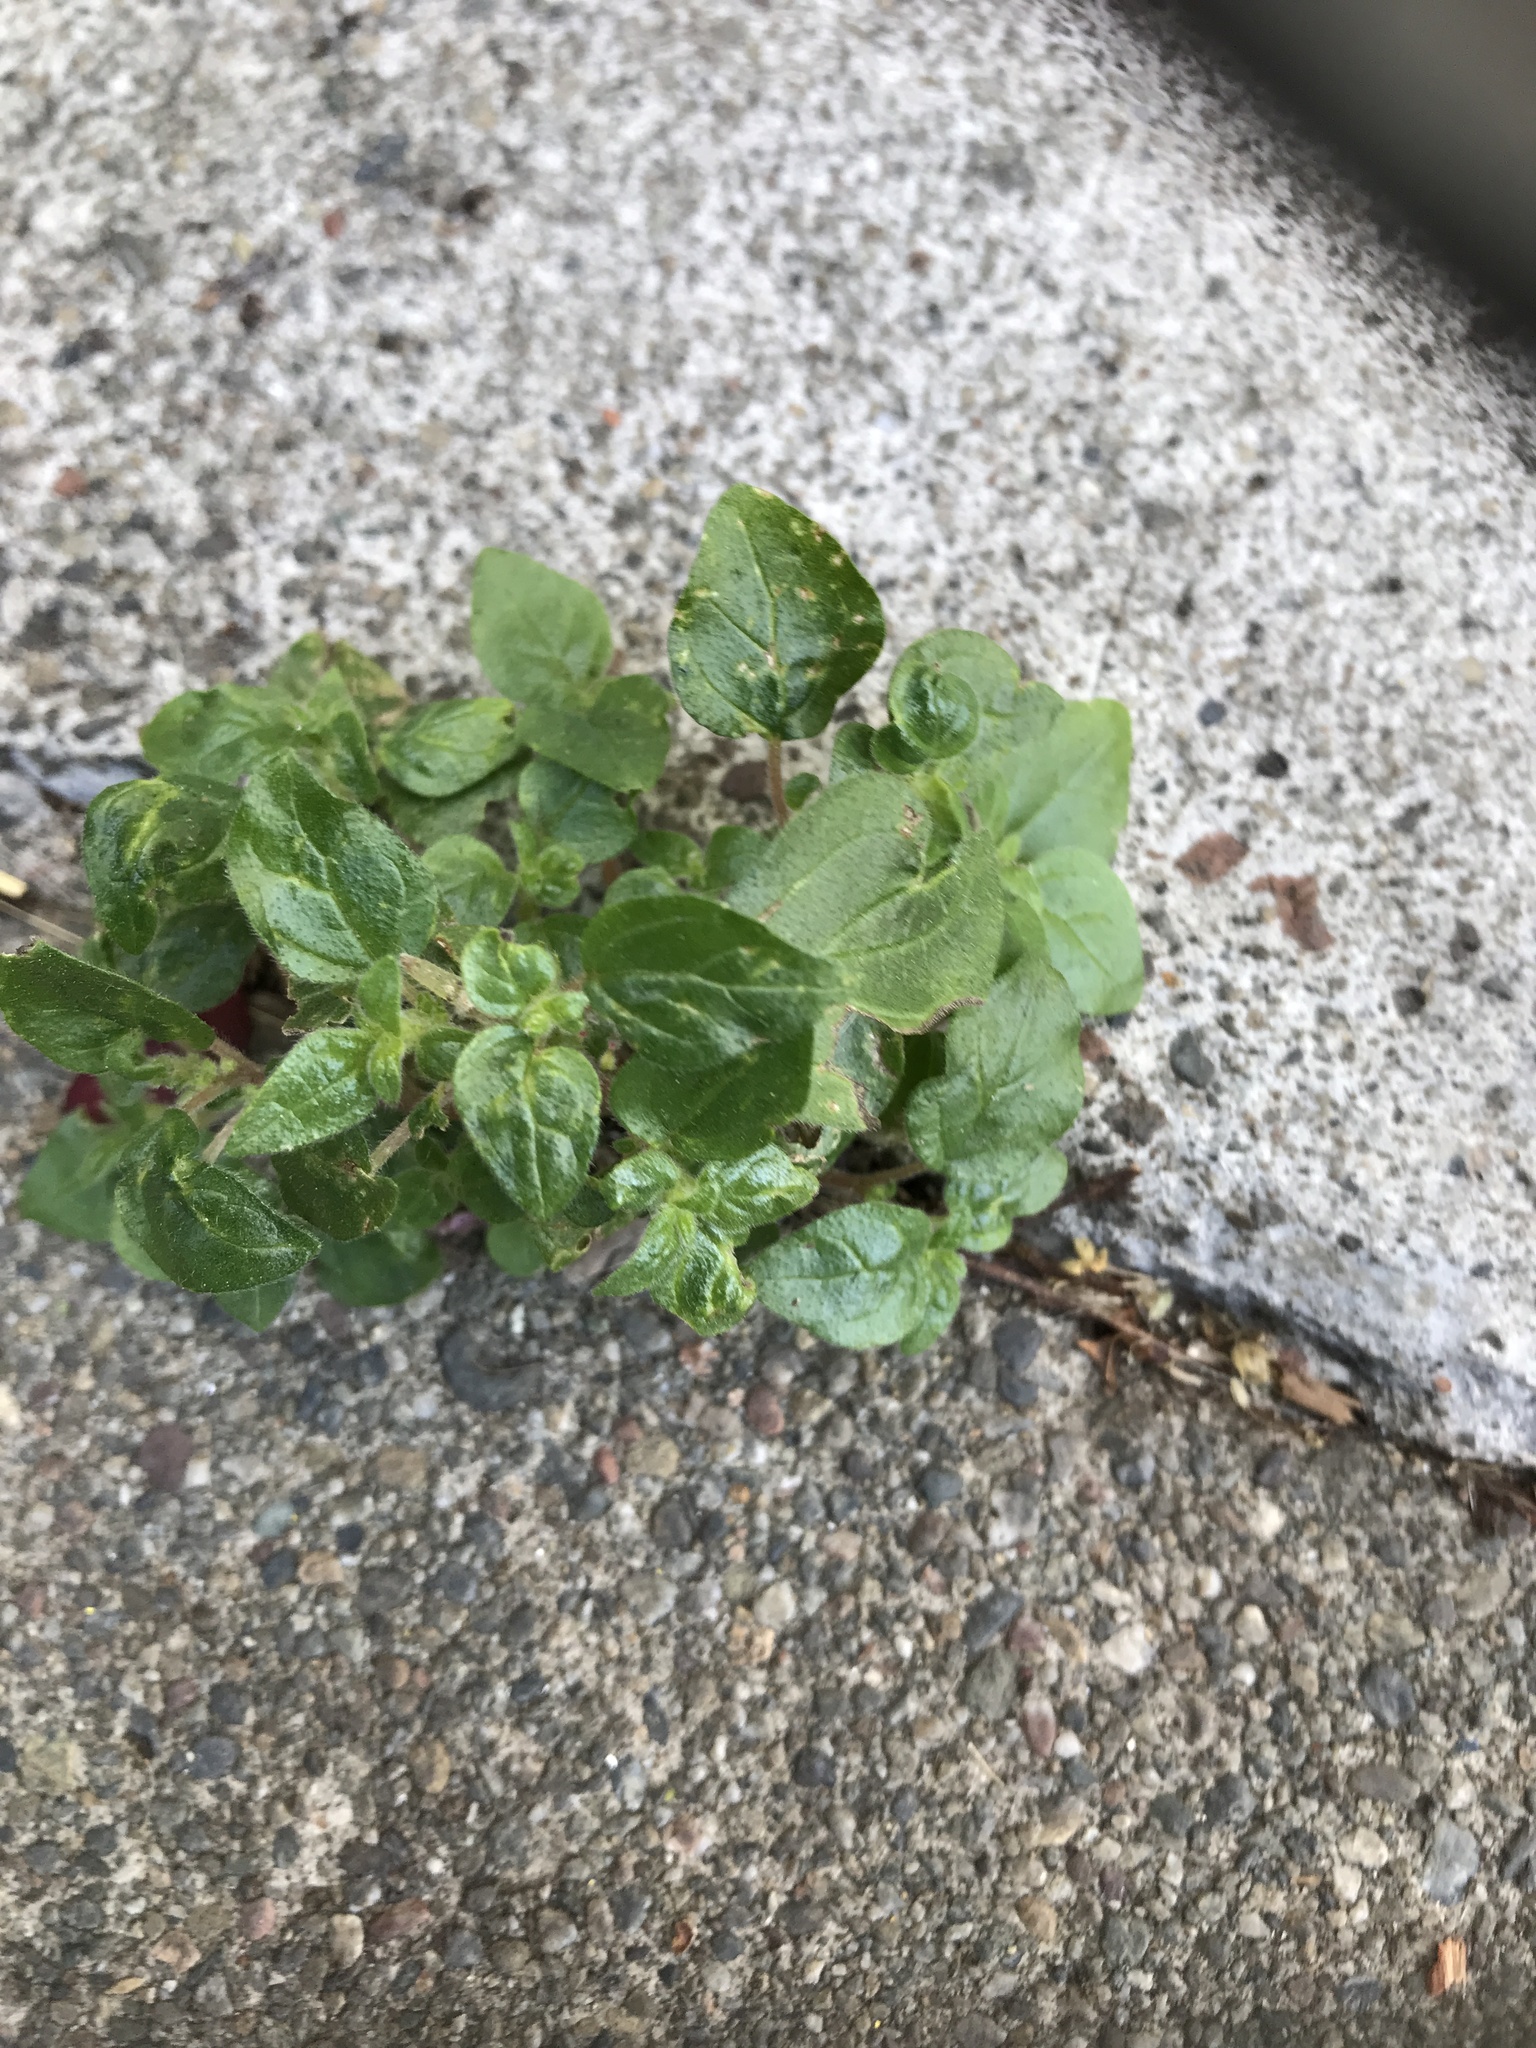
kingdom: Plantae
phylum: Tracheophyta
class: Magnoliopsida
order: Rosales
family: Urticaceae
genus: Parietaria
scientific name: Parietaria judaica
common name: Pellitory-of-the-wall
